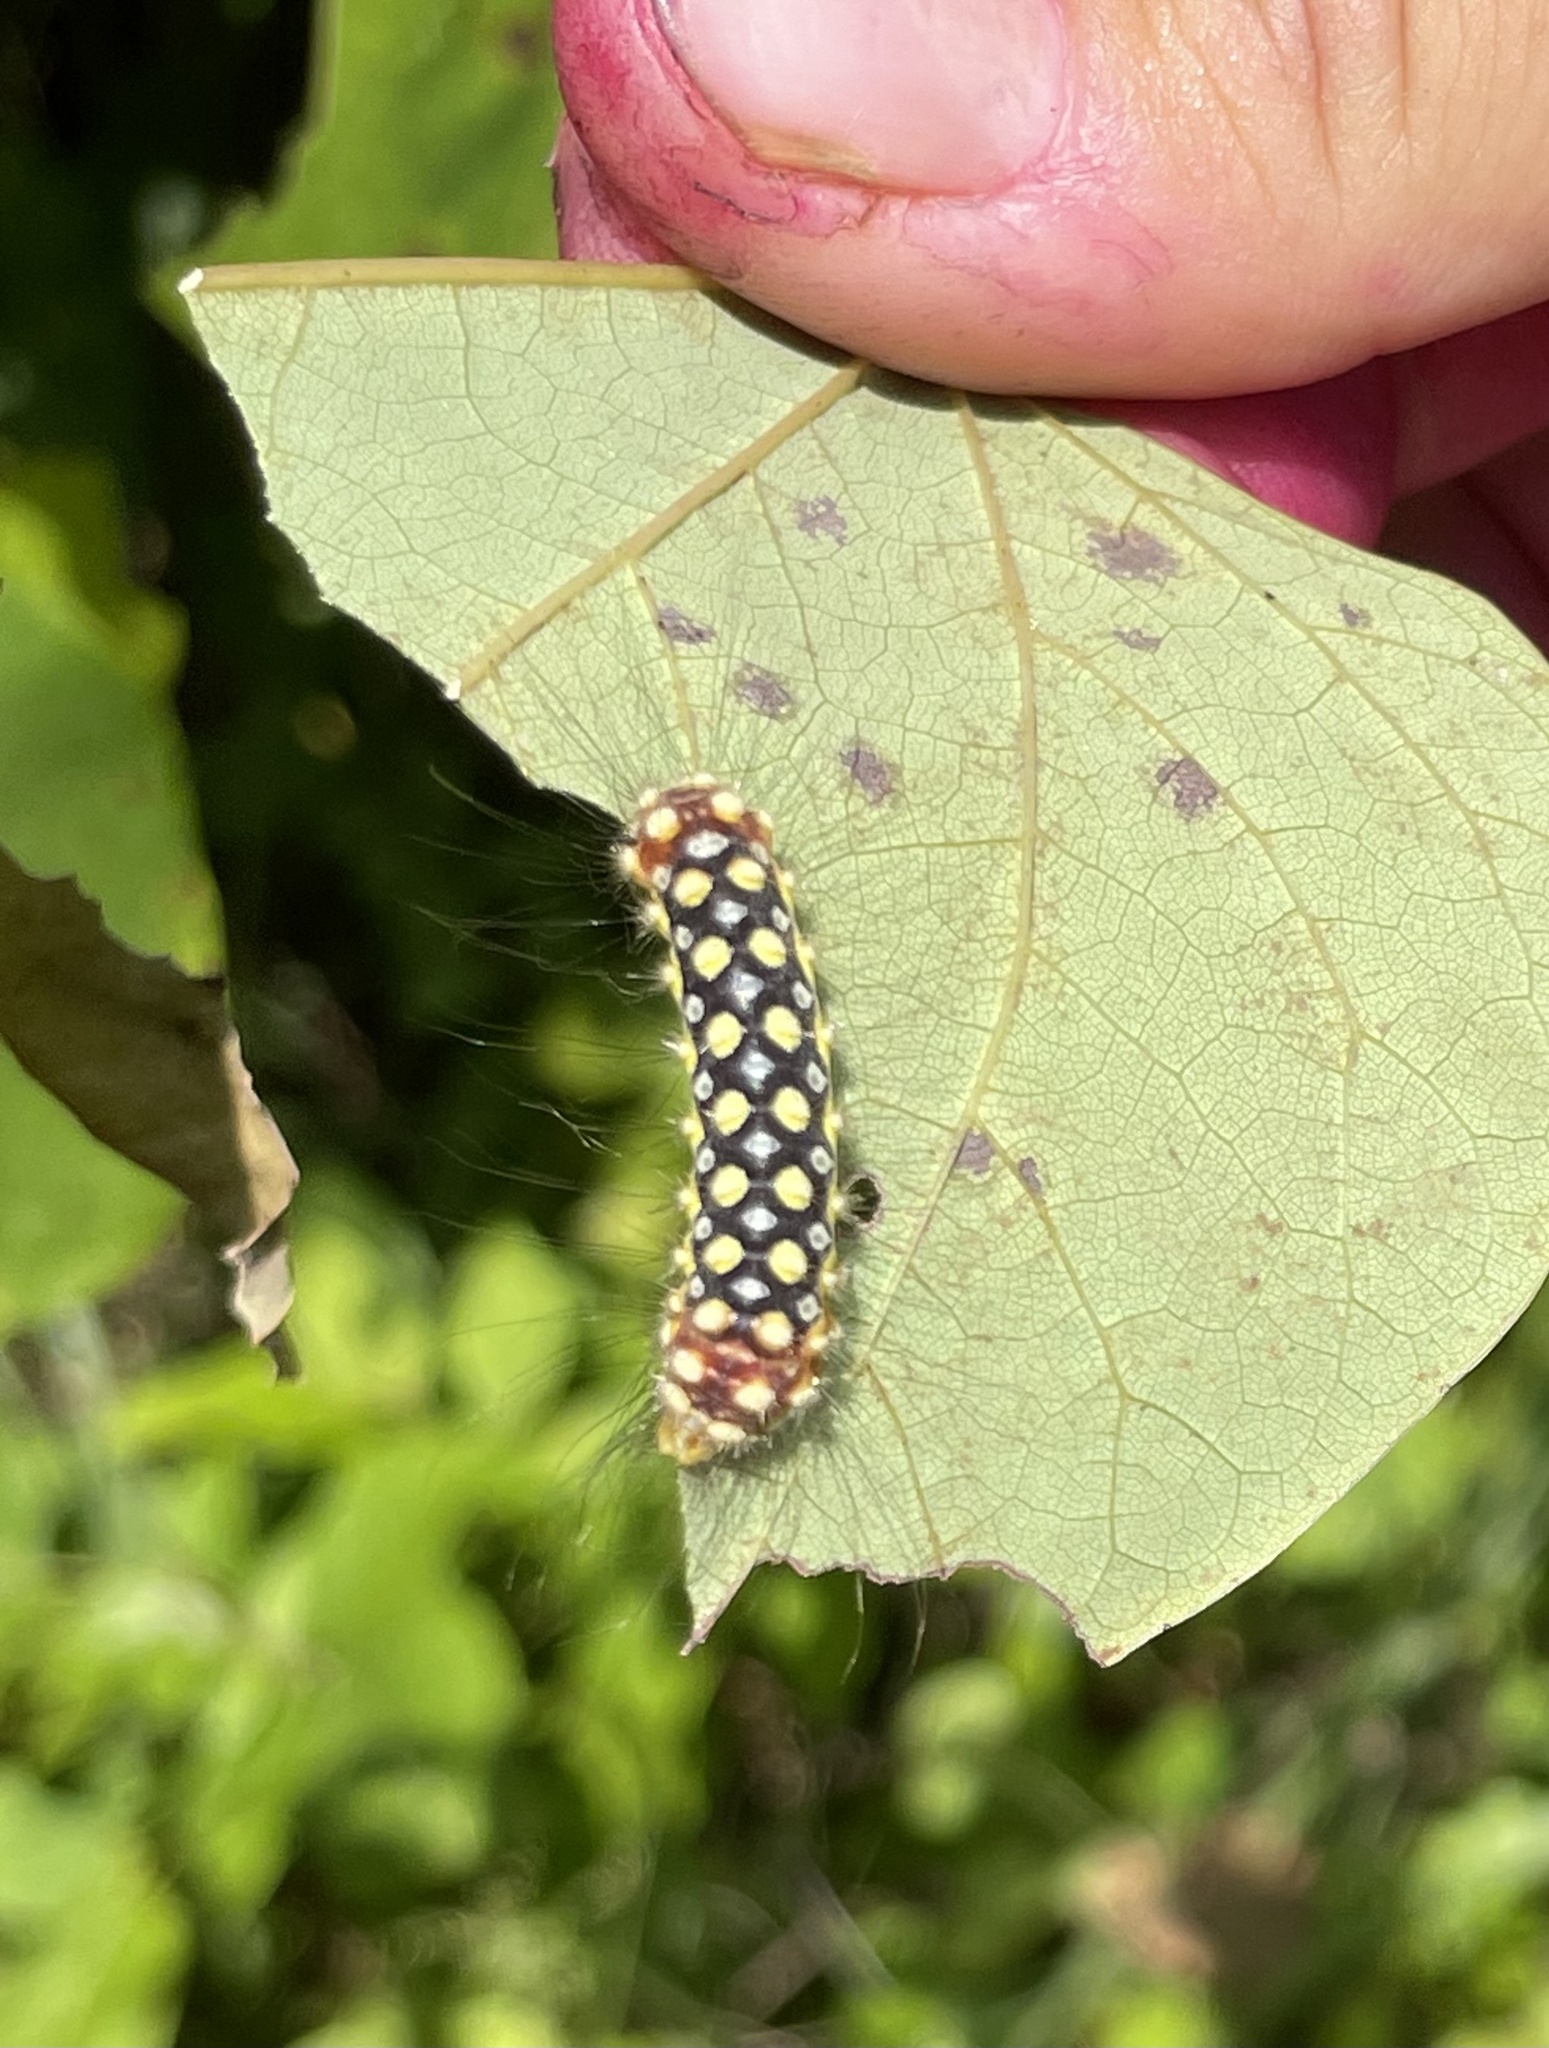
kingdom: Animalia
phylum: Arthropoda
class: Insecta
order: Lepidoptera
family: Megalopygidae
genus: Norape
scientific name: Norape cretata
